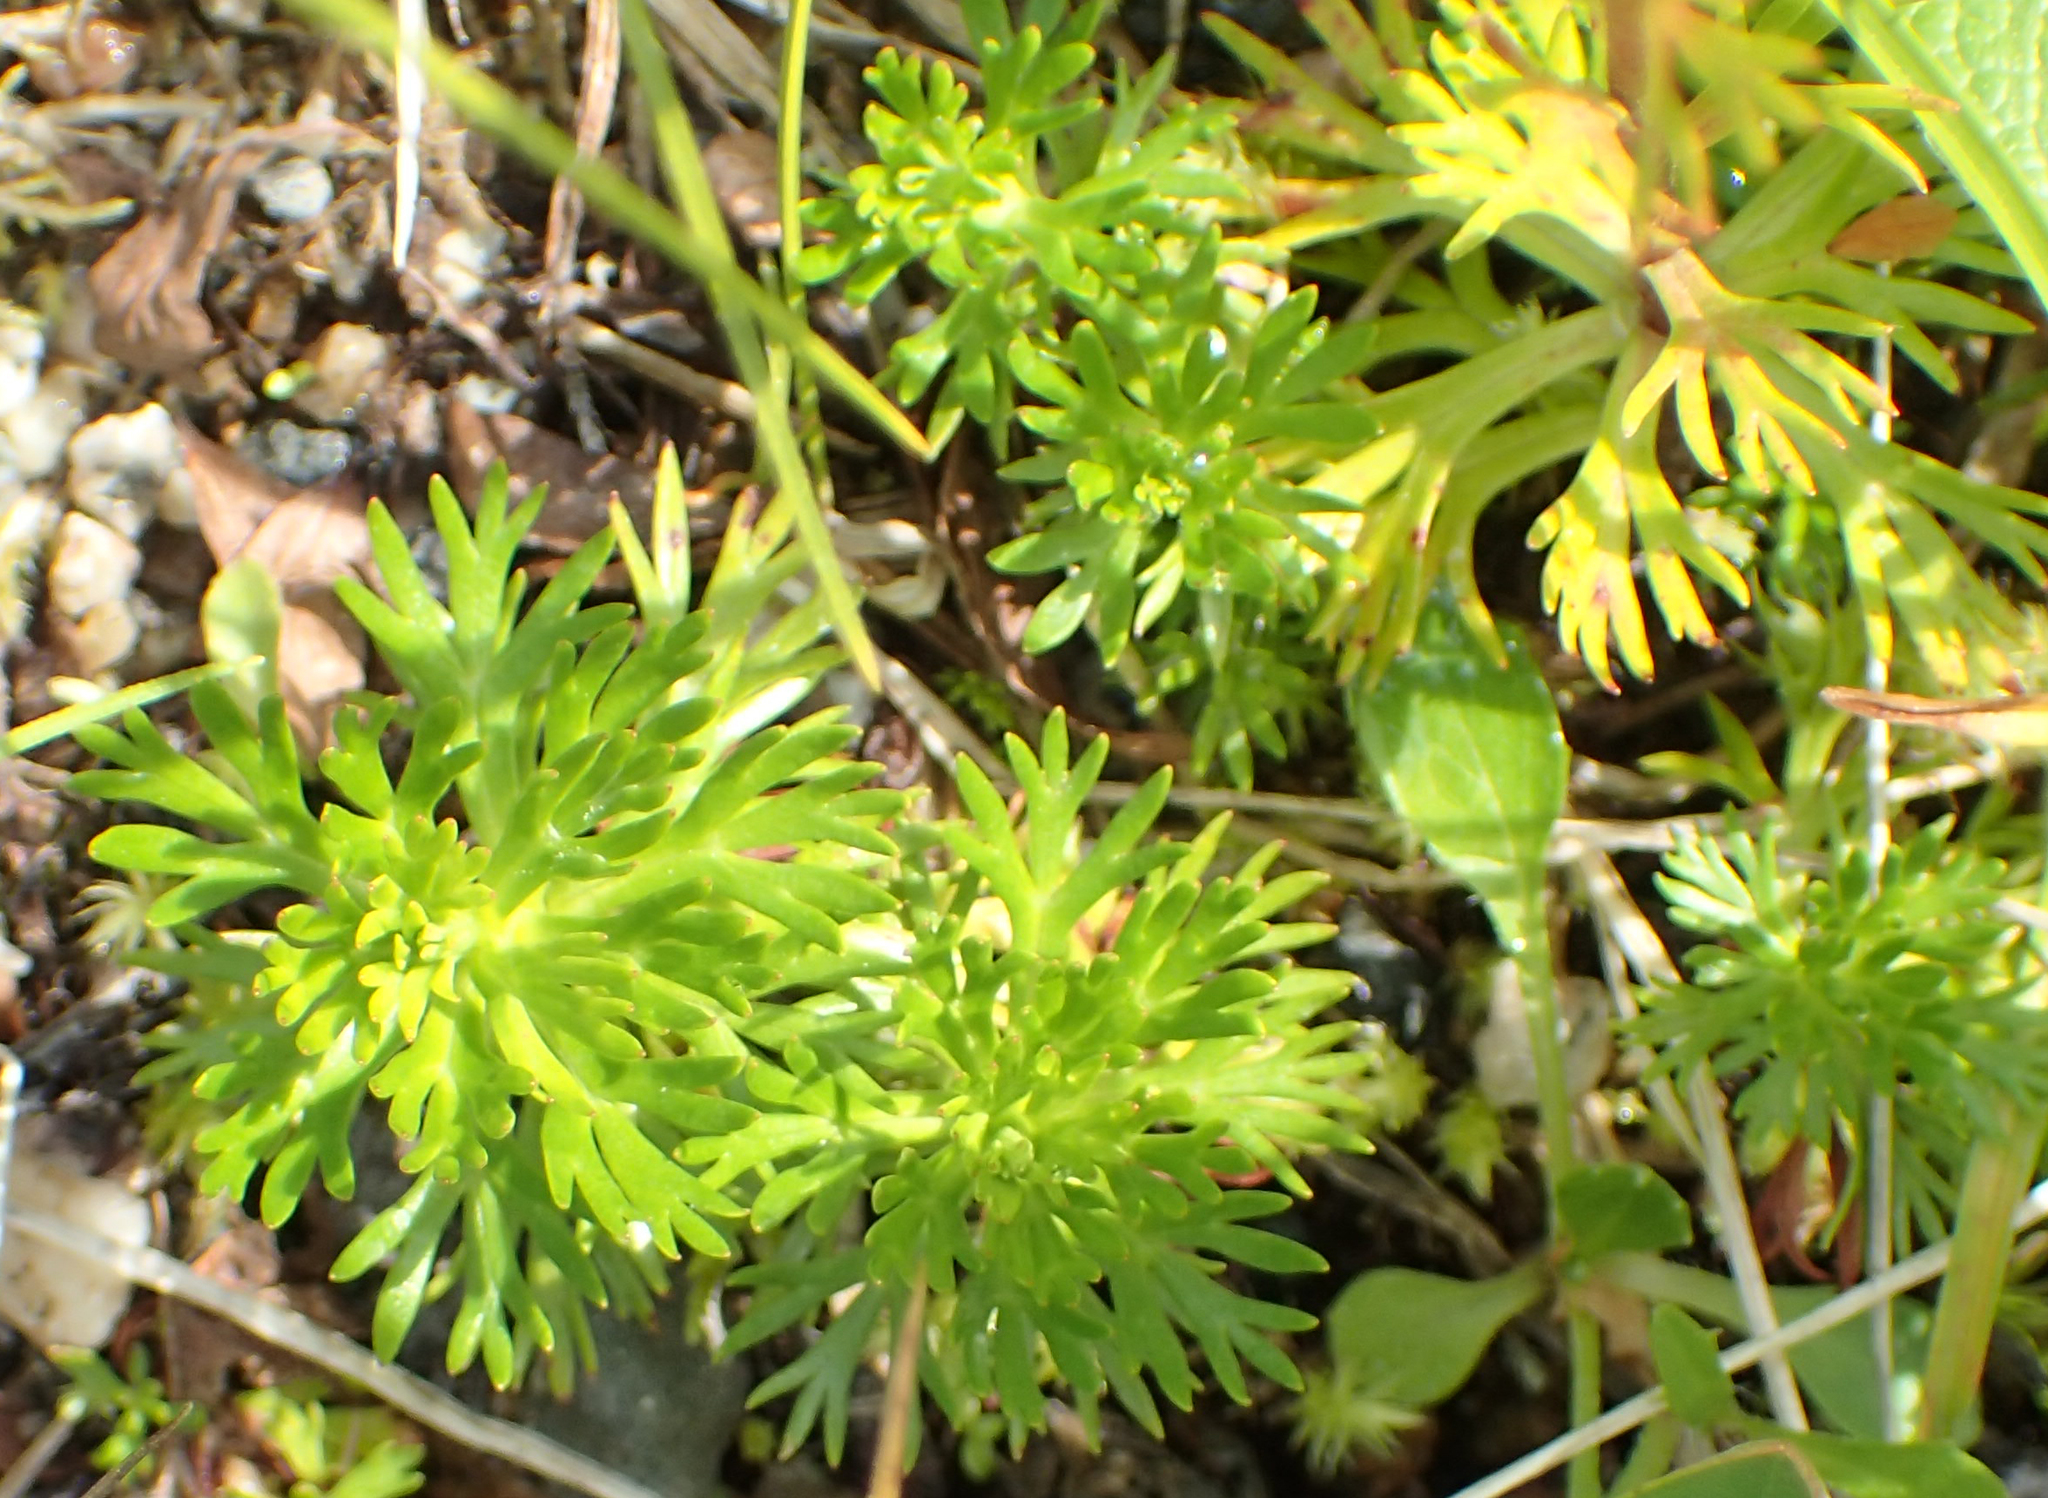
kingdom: Plantae
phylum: Tracheophyta
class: Magnoliopsida
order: Rosales
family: Rosaceae
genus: Luetkea
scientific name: Luetkea pectinata
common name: Partridgefoot
